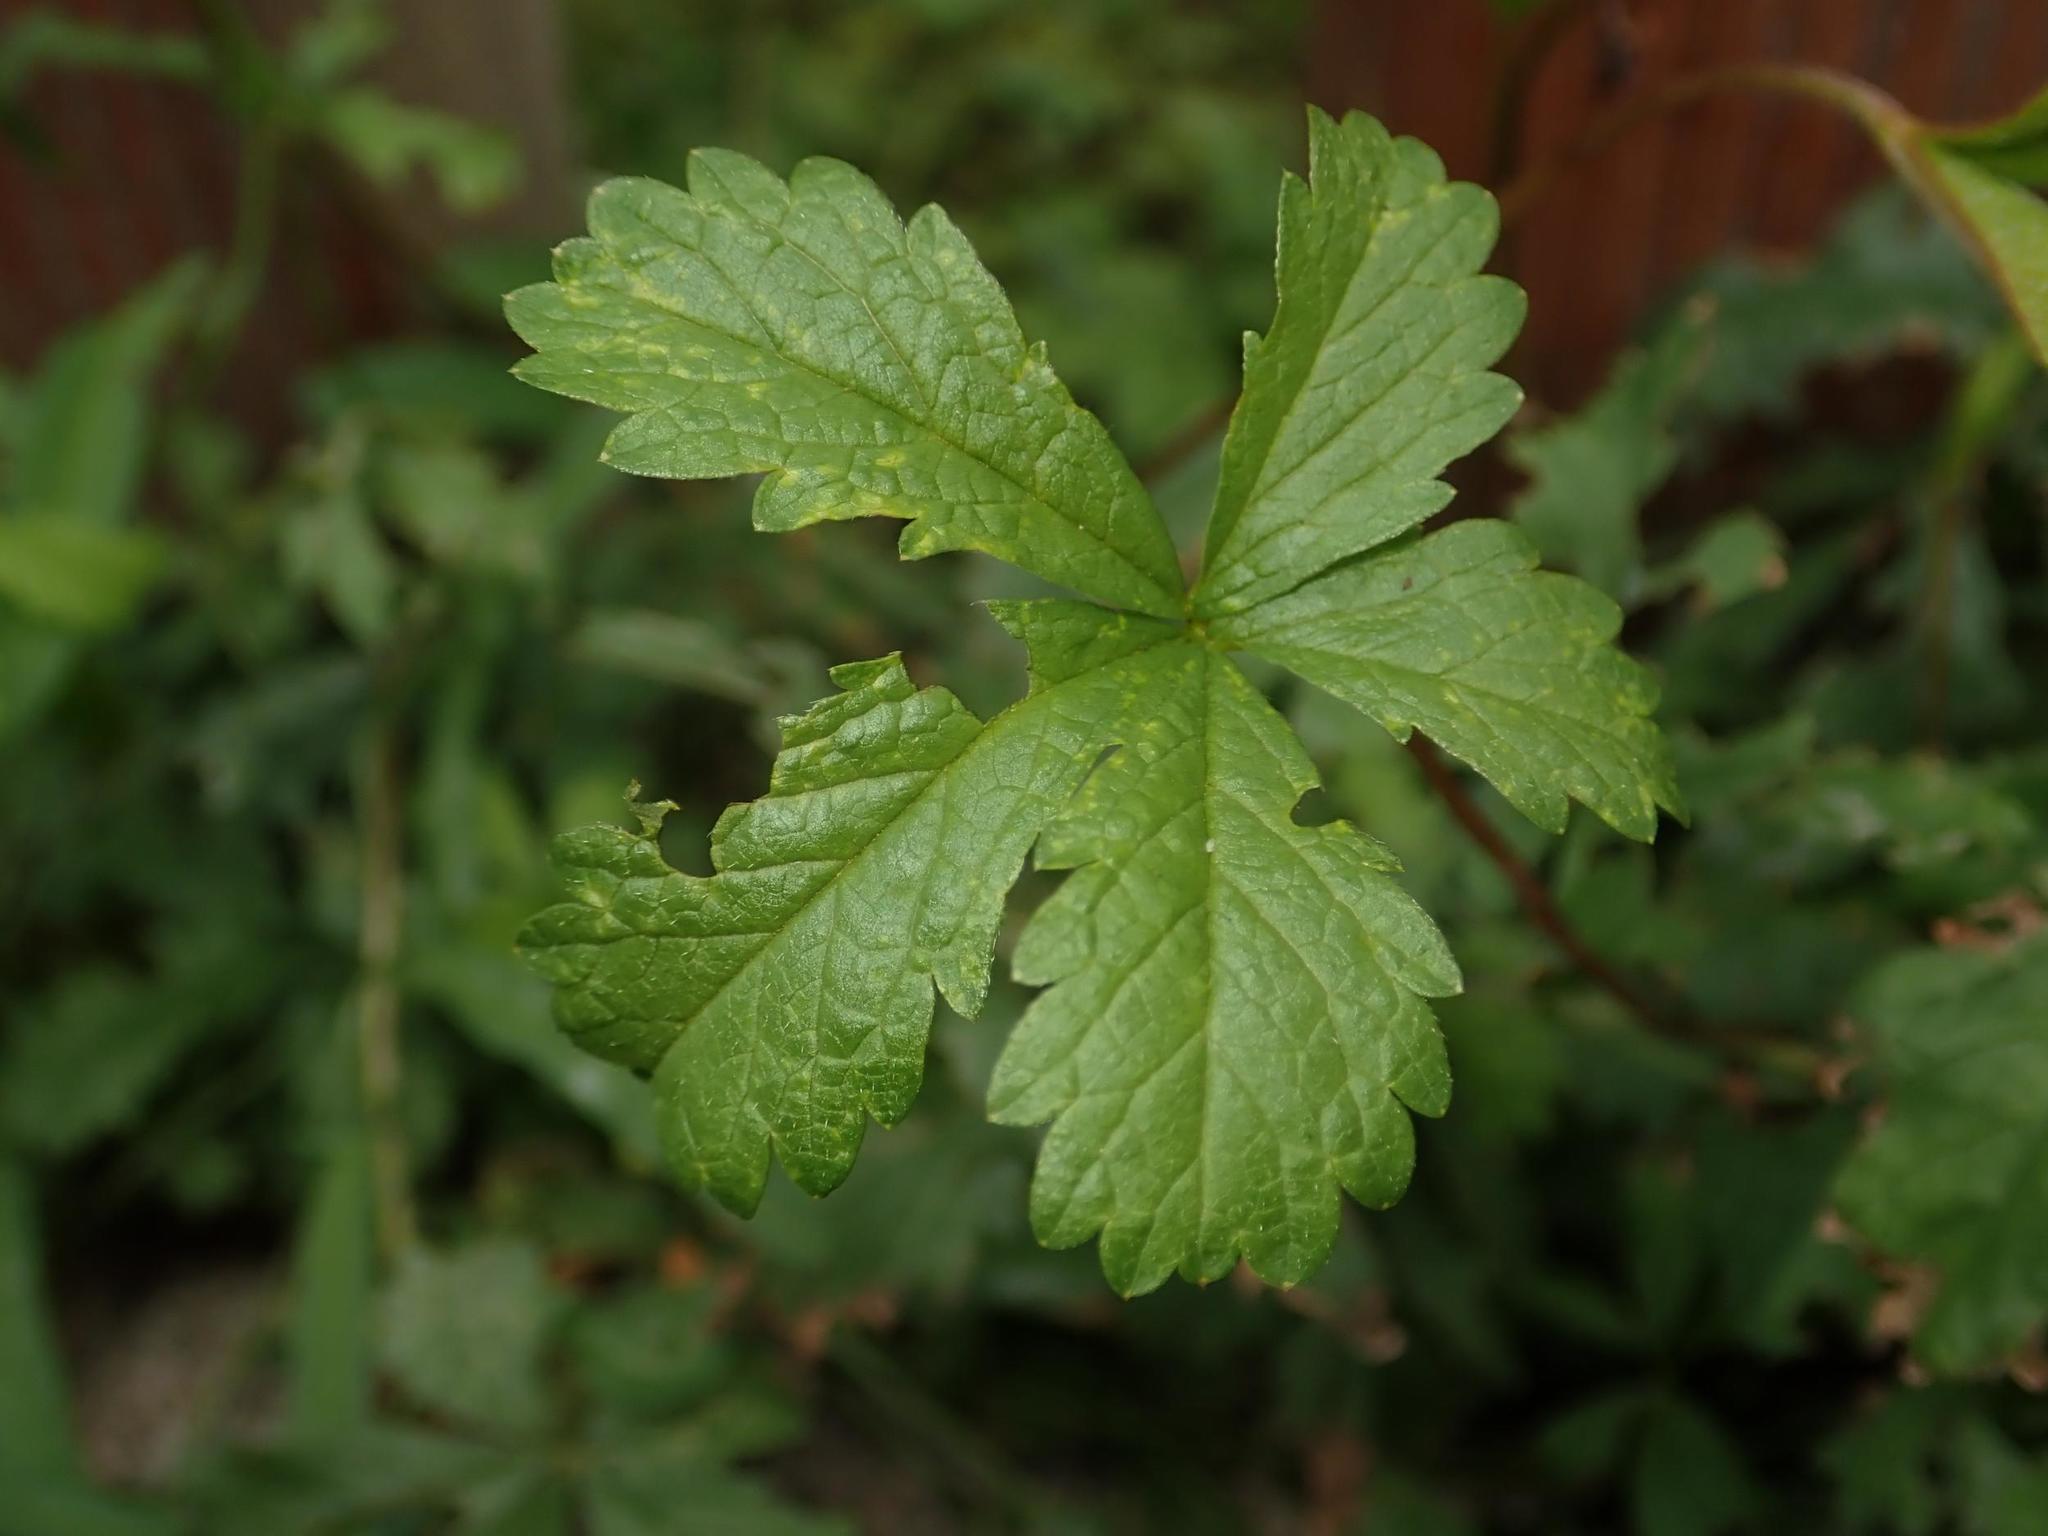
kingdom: Plantae
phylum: Tracheophyta
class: Magnoliopsida
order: Rosales
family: Rosaceae
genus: Potentilla
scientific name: Potentilla reptans
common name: Creeping cinquefoil
